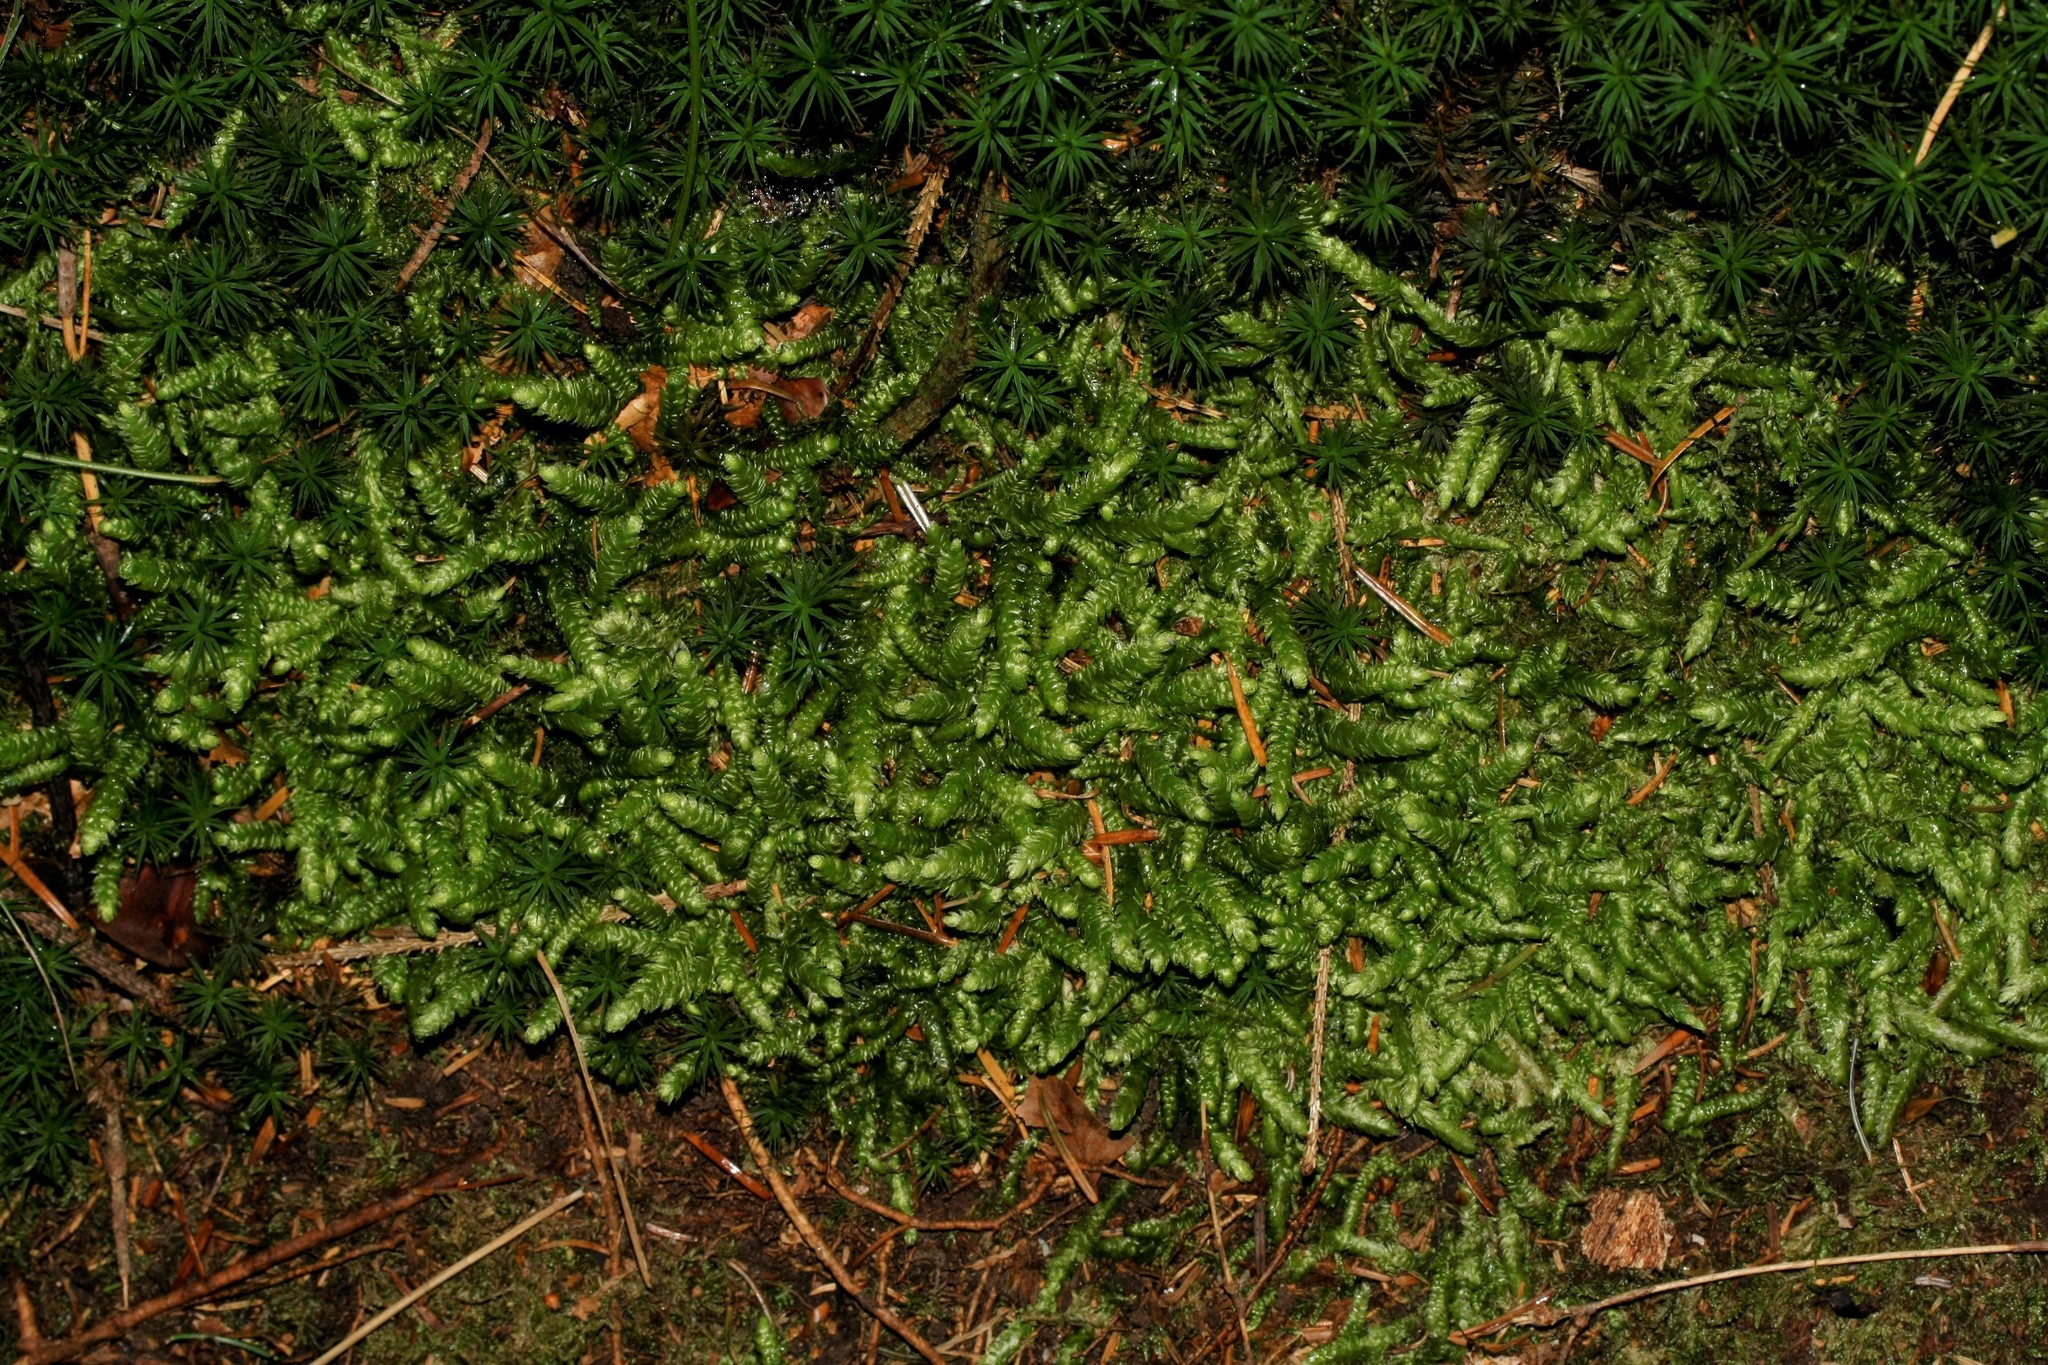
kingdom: Plantae
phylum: Bryophyta
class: Bryopsida
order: Hypnales
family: Plagiotheciaceae
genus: Plagiothecium
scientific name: Plagiothecium undulatum
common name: Waved silk-moss
